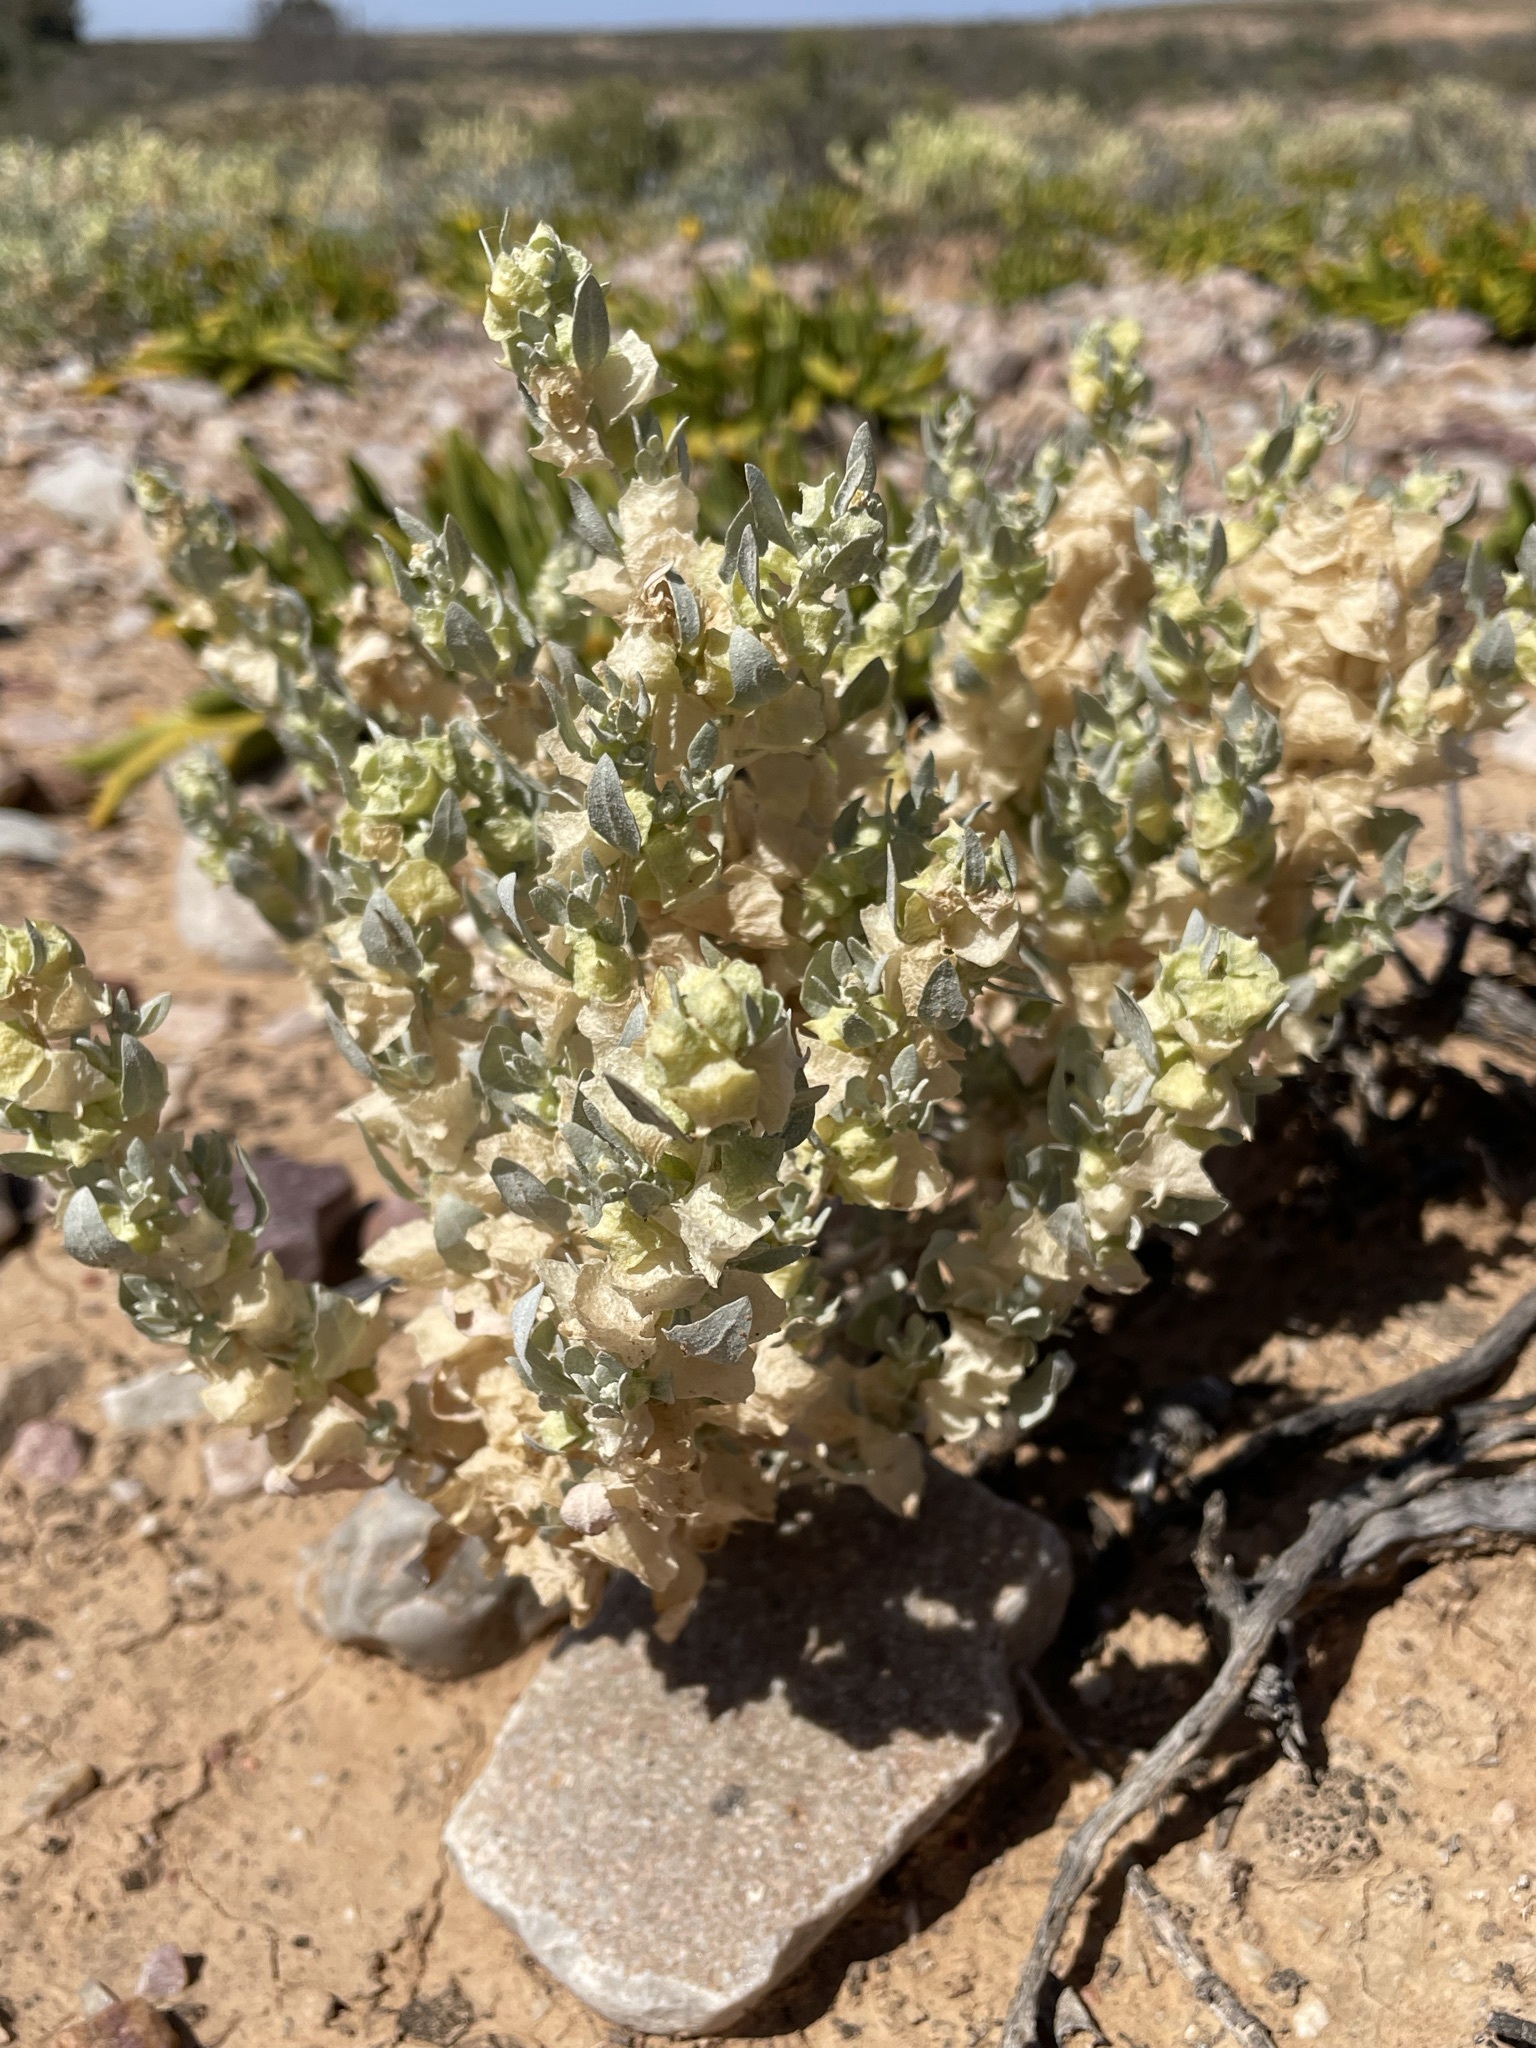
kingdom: Plantae
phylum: Tracheophyta
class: Magnoliopsida
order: Caryophyllales
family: Amaranthaceae
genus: Atriplex
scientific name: Atriplex lindleyi
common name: Lindley's saltbush
